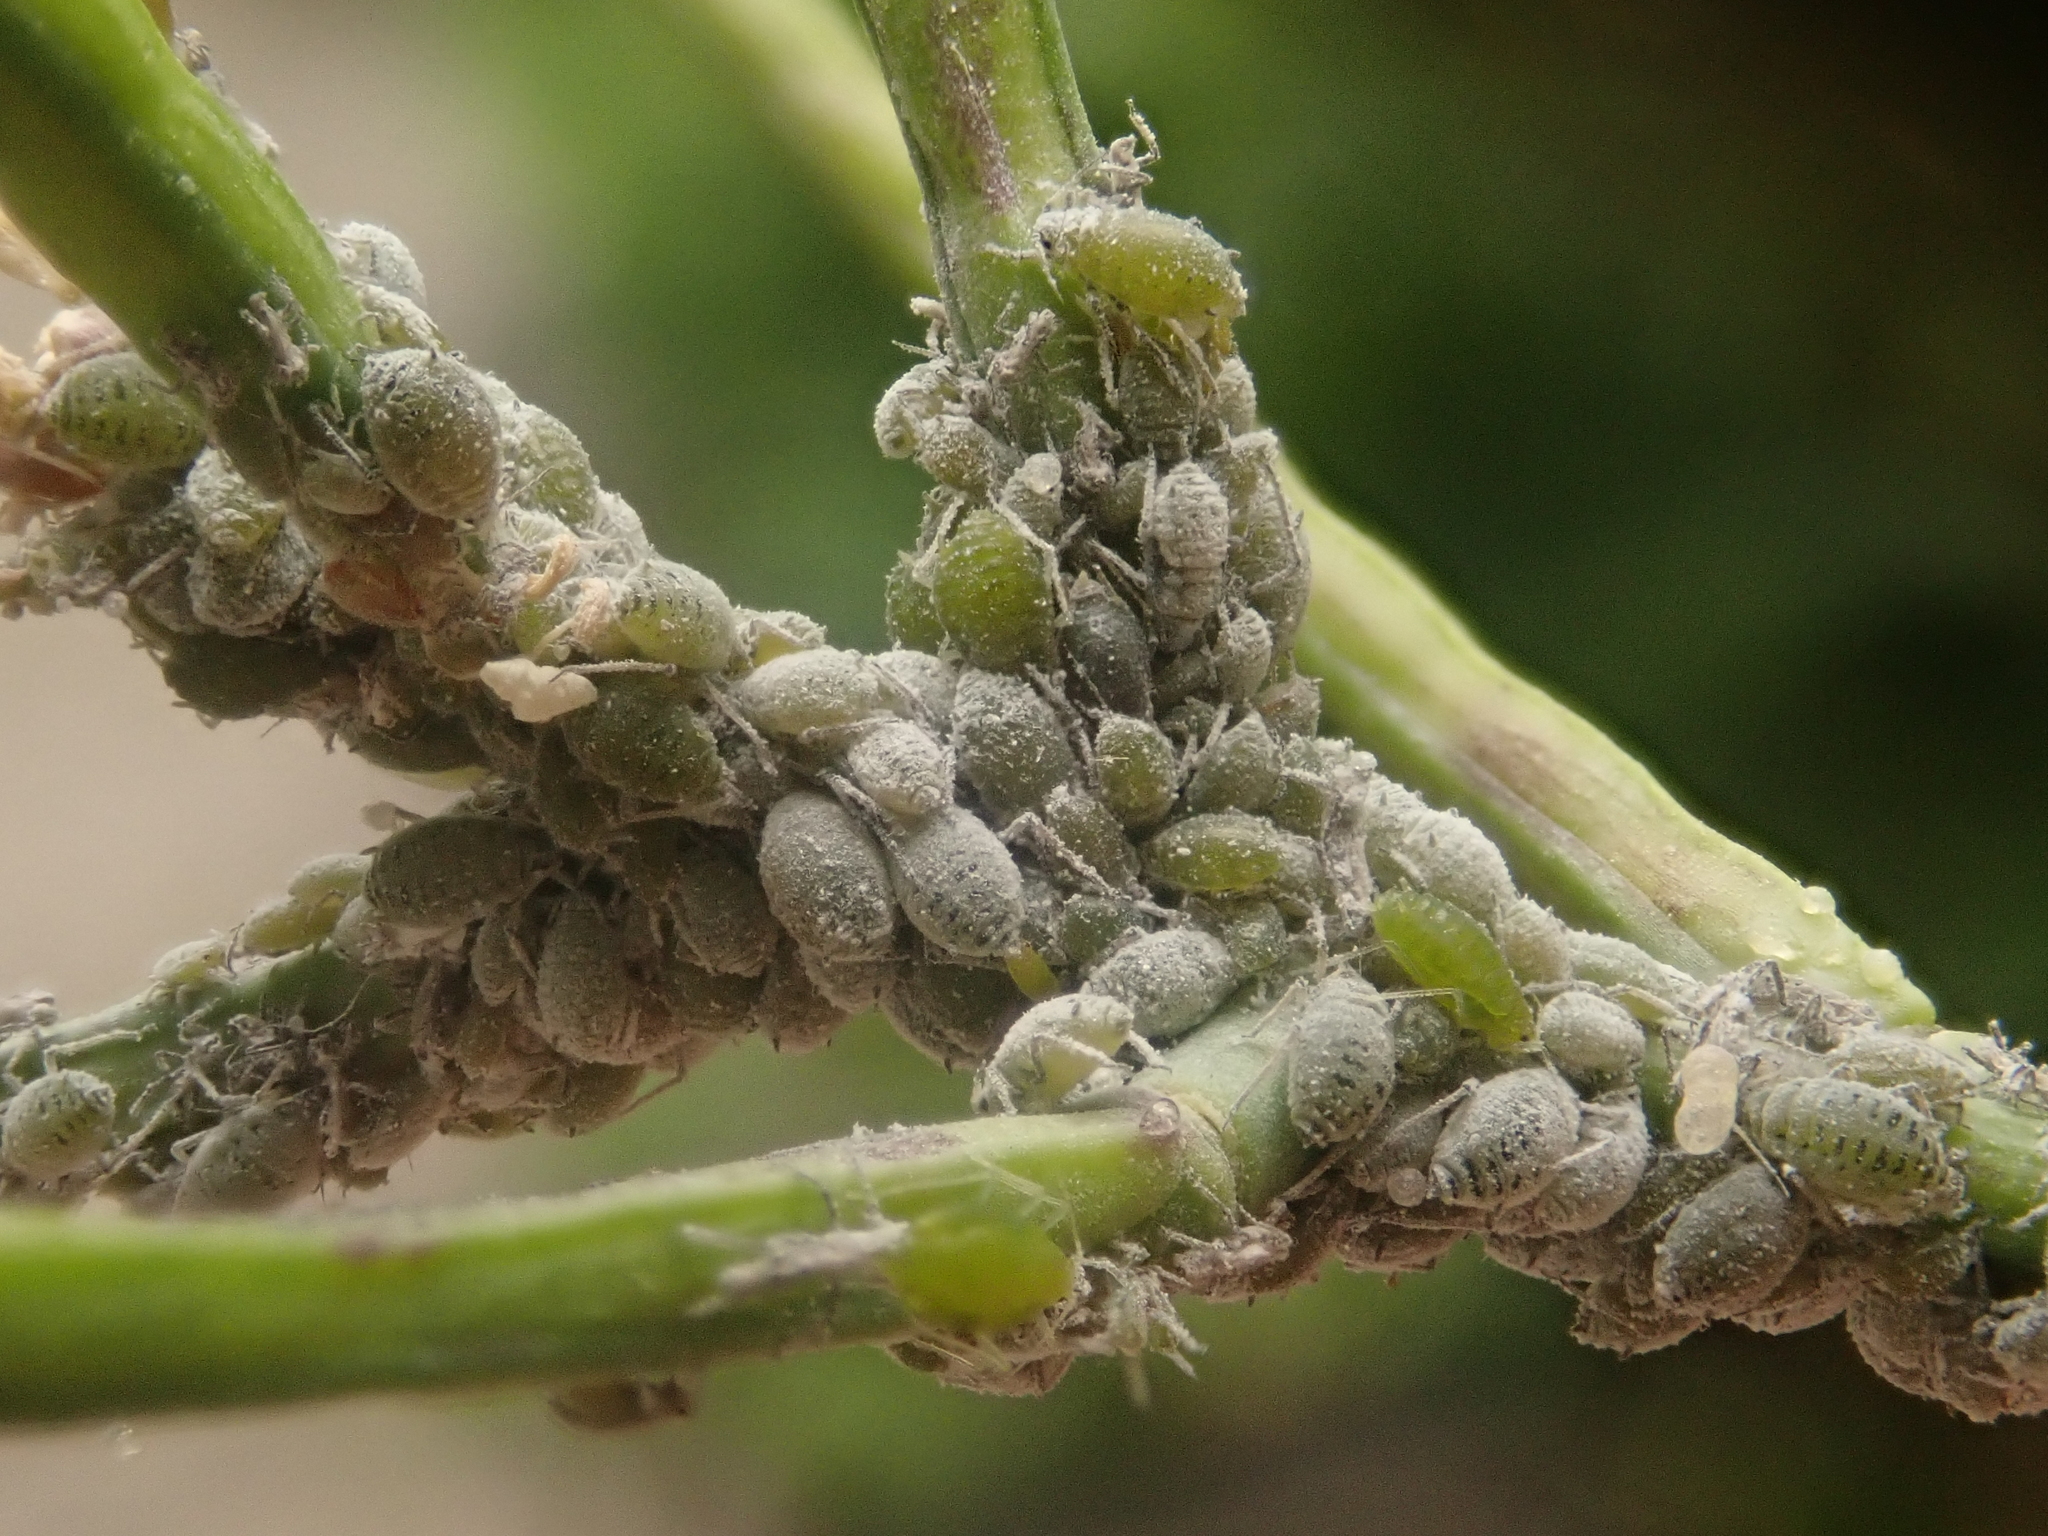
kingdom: Animalia
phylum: Arthropoda
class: Insecta
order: Hemiptera
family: Aphididae
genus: Brevicoryne
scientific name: Brevicoryne brassicae
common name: Cabbage aphid
